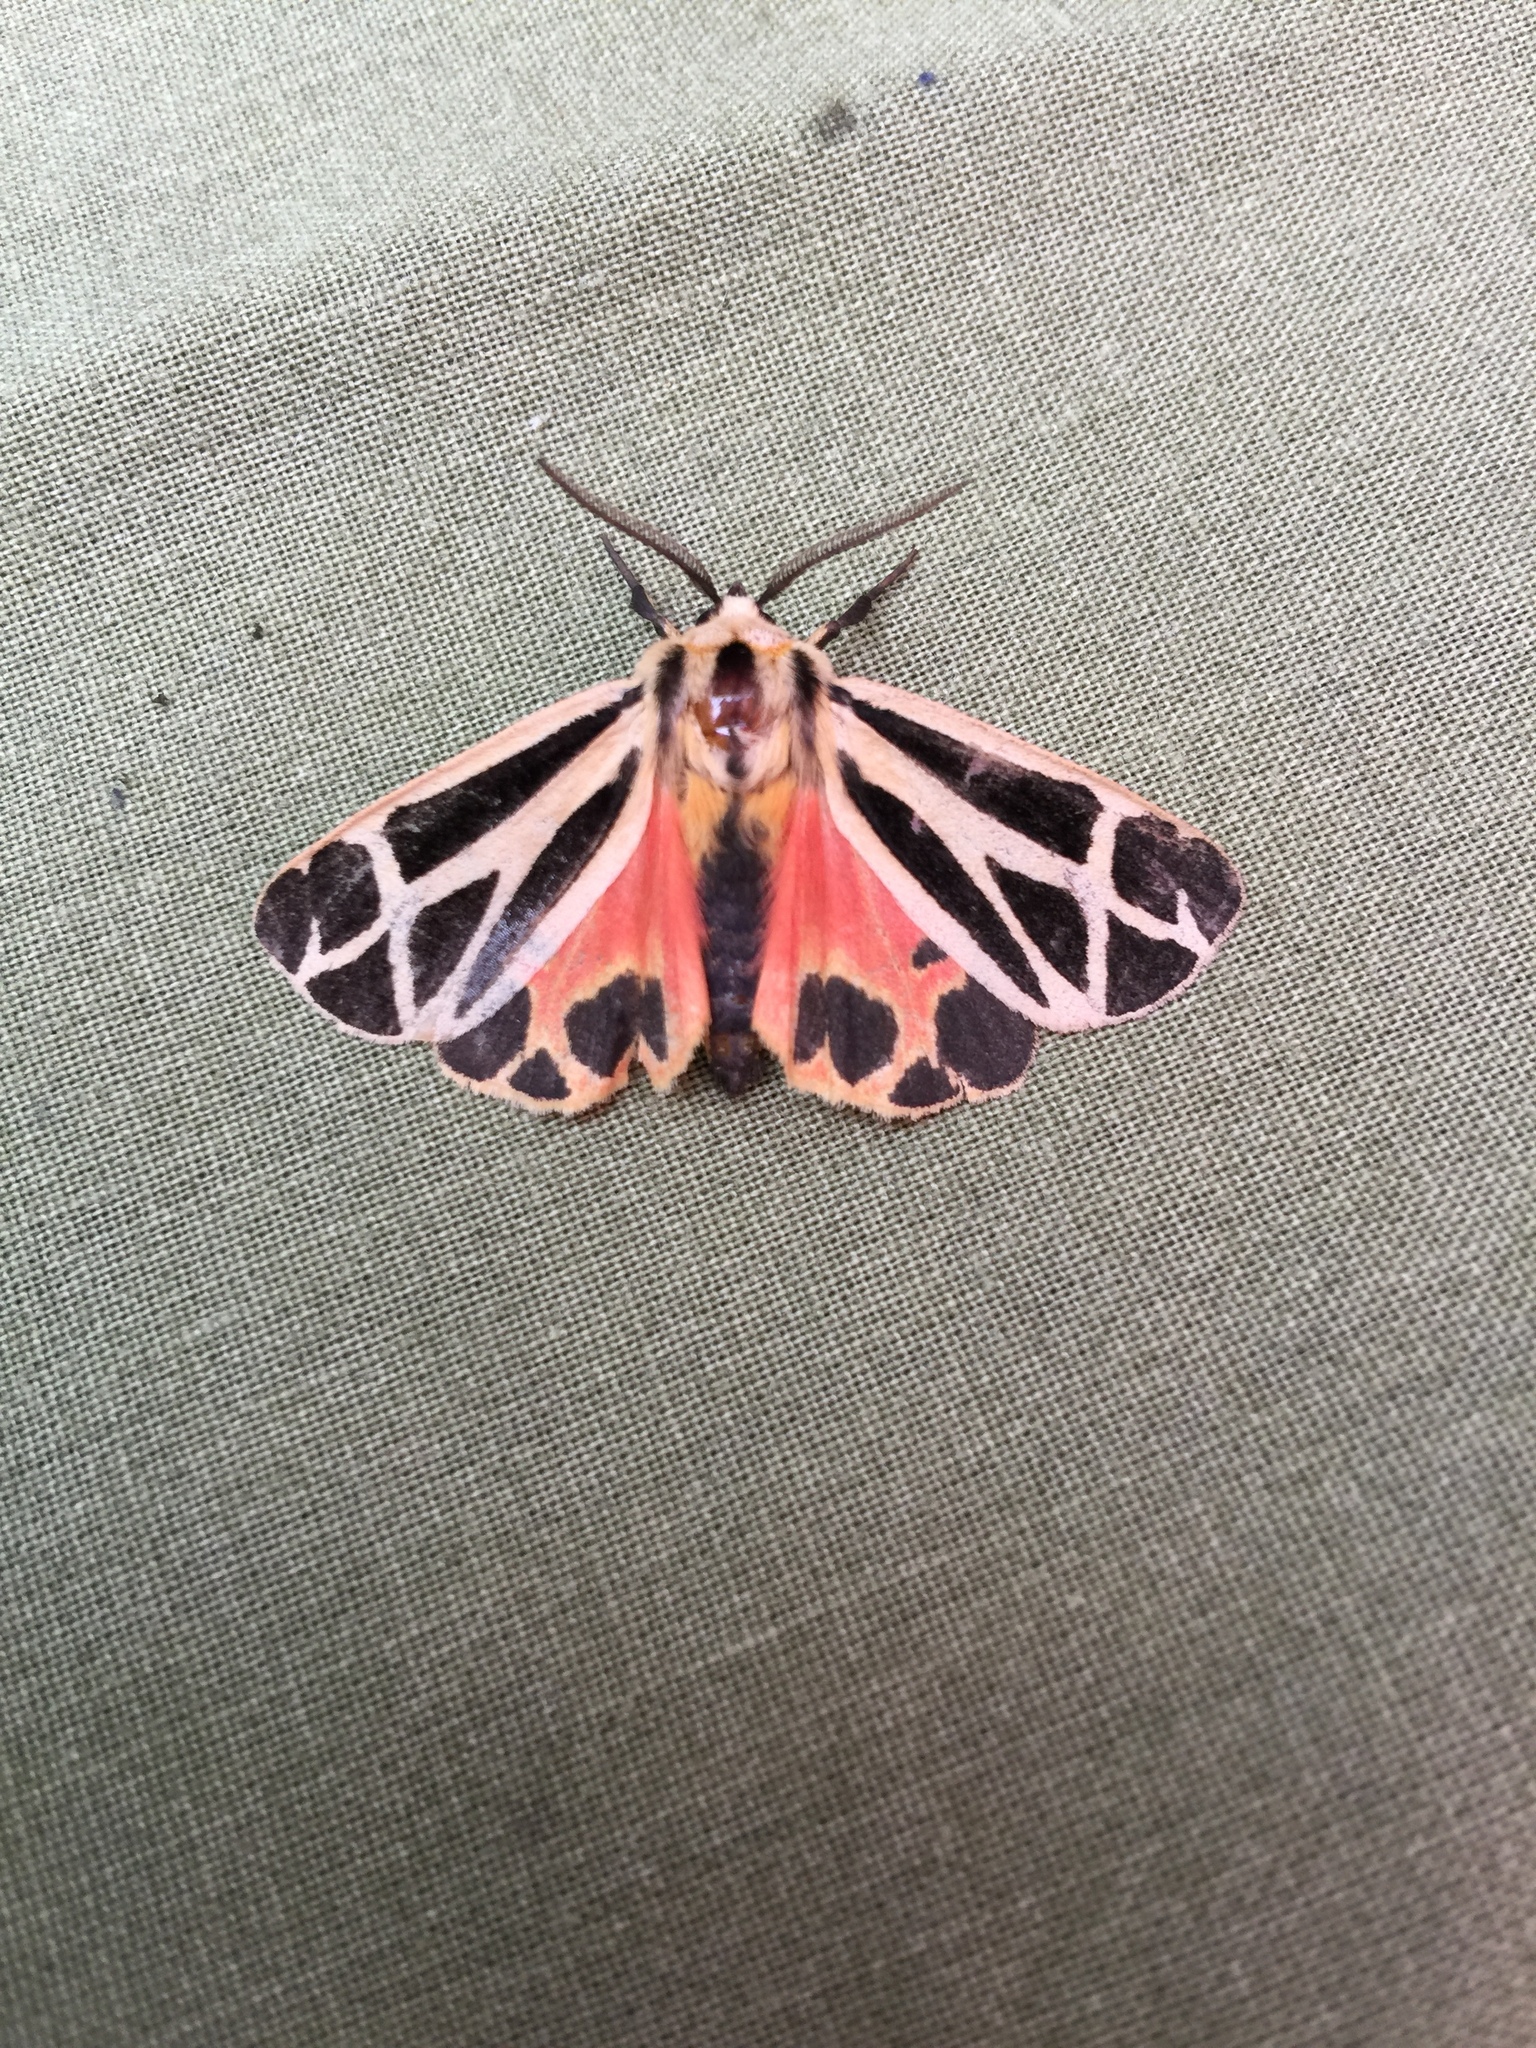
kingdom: Animalia
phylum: Arthropoda
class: Insecta
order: Lepidoptera
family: Erebidae
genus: Apantesis
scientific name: Apantesis nais
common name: Nais tiger moth
